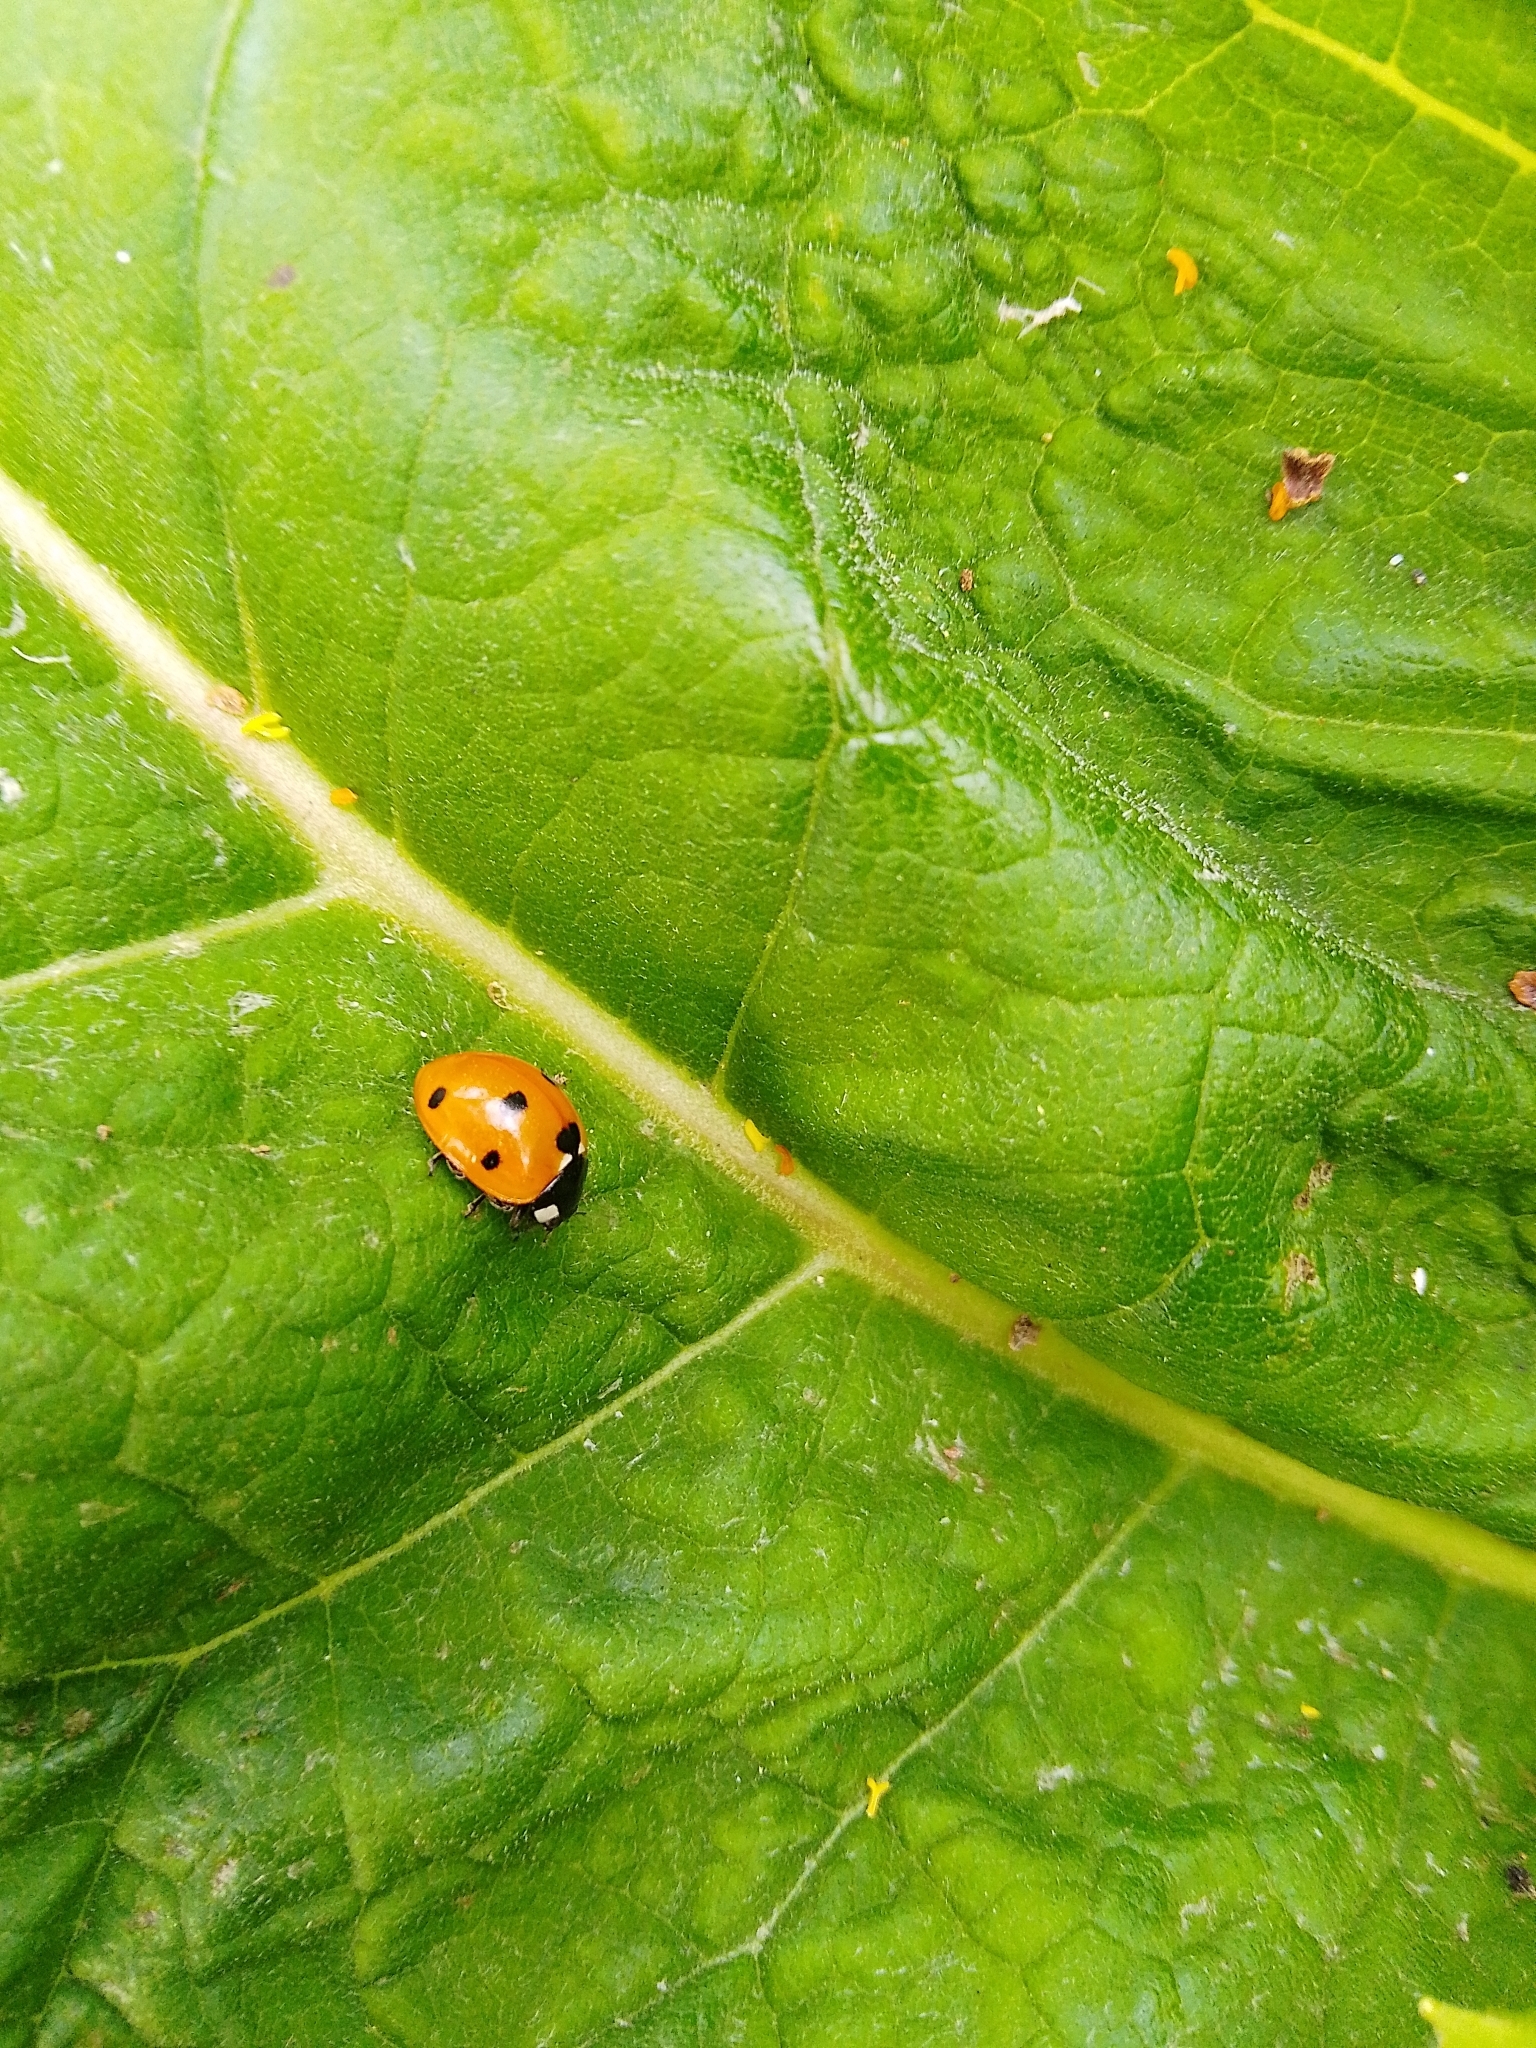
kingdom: Animalia
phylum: Arthropoda
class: Insecta
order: Coleoptera
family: Coccinellidae
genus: Coccinella
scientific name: Coccinella septempunctata
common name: Sevenspotted lady beetle
